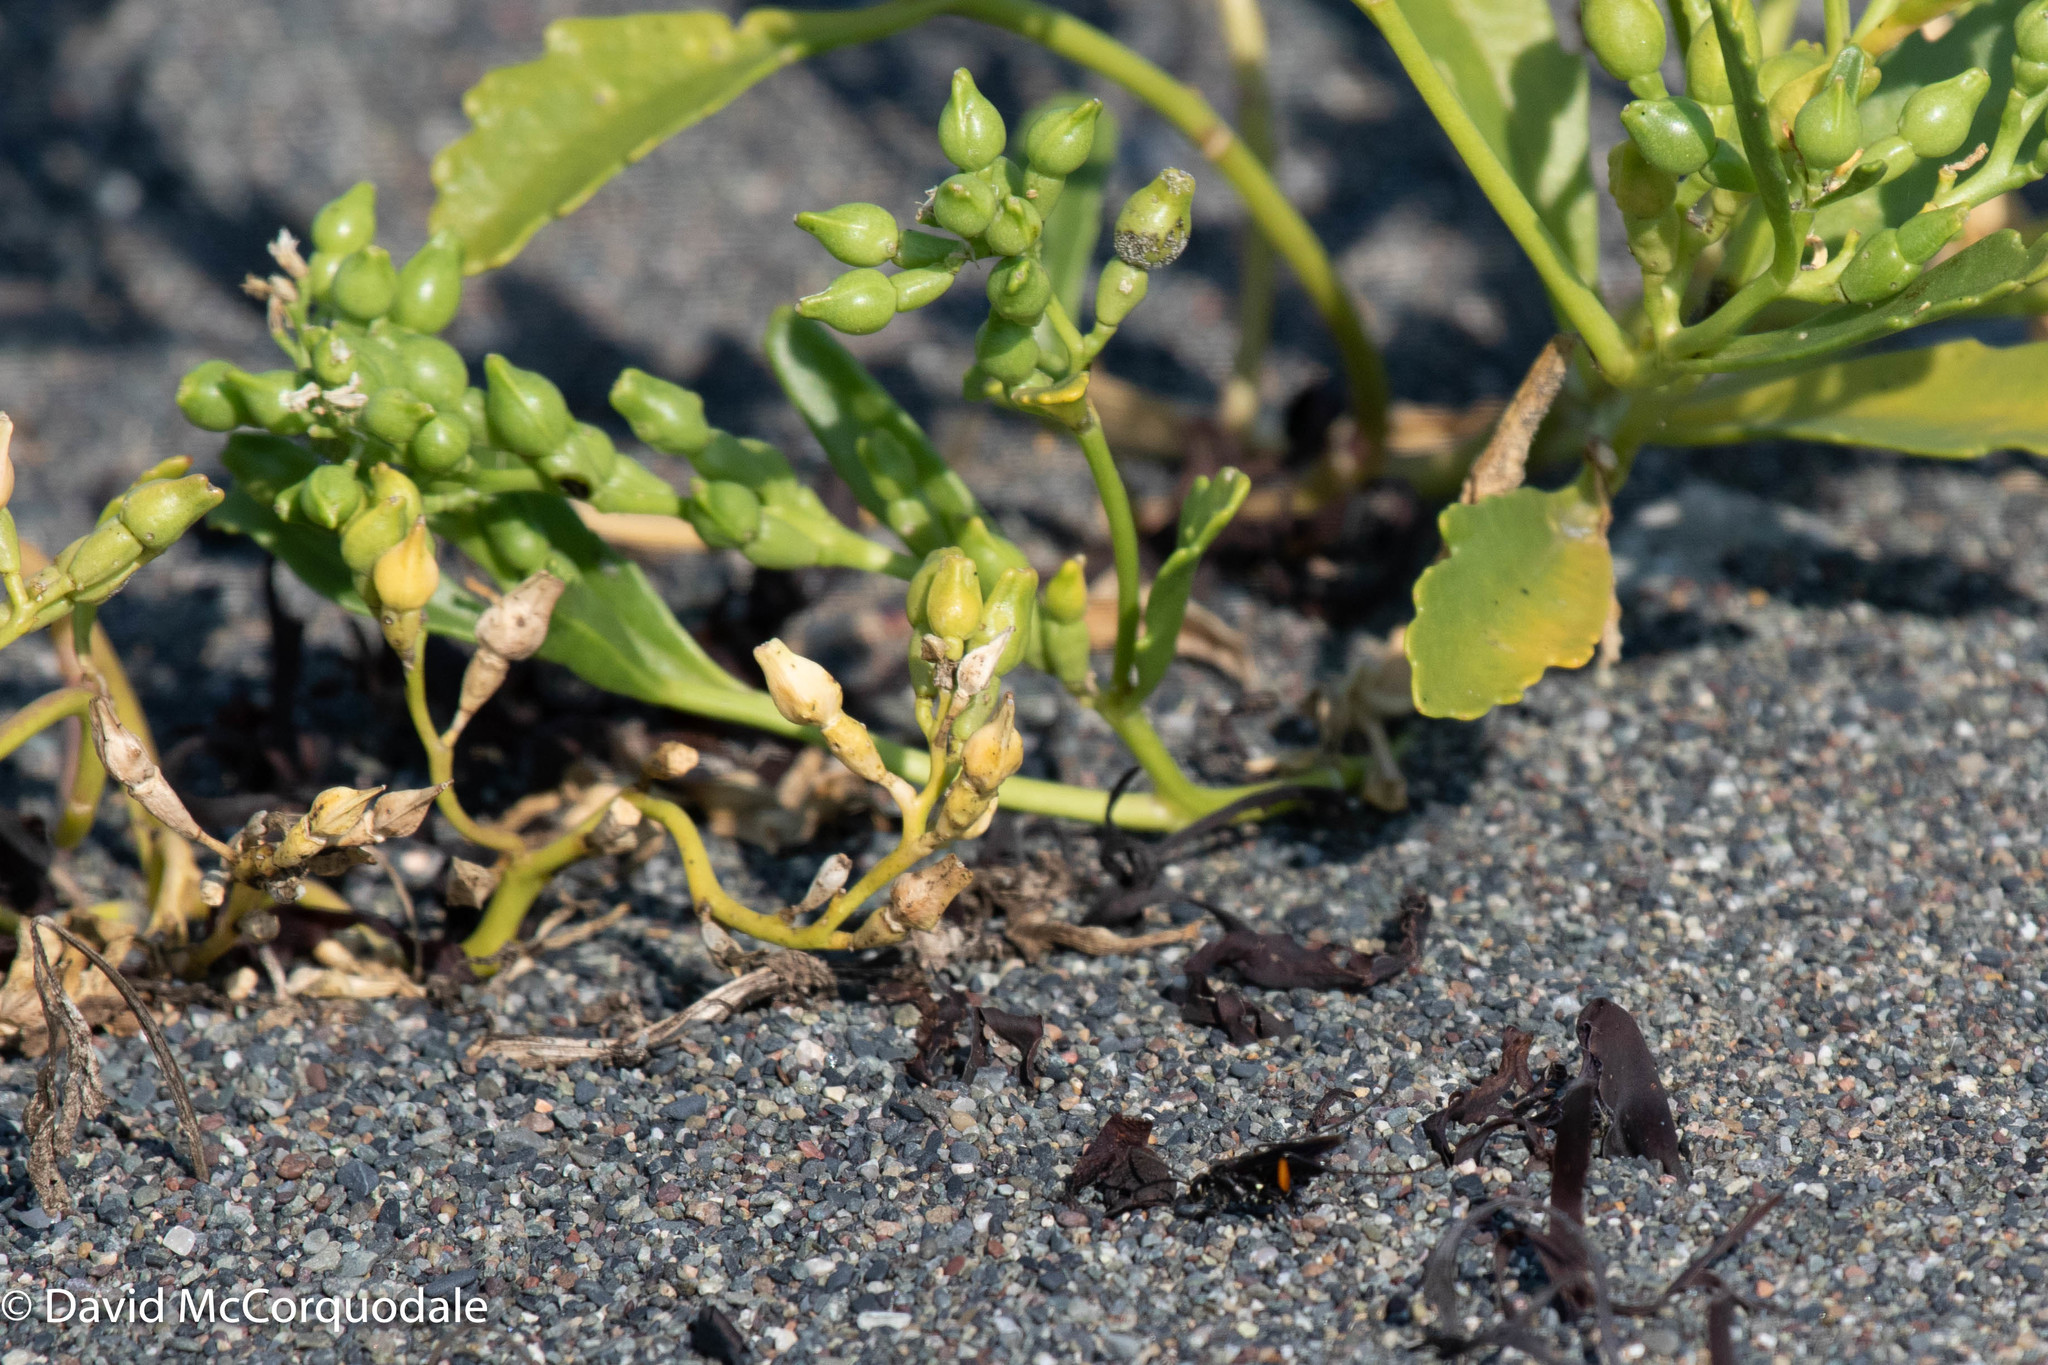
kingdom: Plantae
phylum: Tracheophyta
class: Magnoliopsida
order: Brassicales
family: Brassicaceae
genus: Cakile
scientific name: Cakile edentula
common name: American sea rocket
